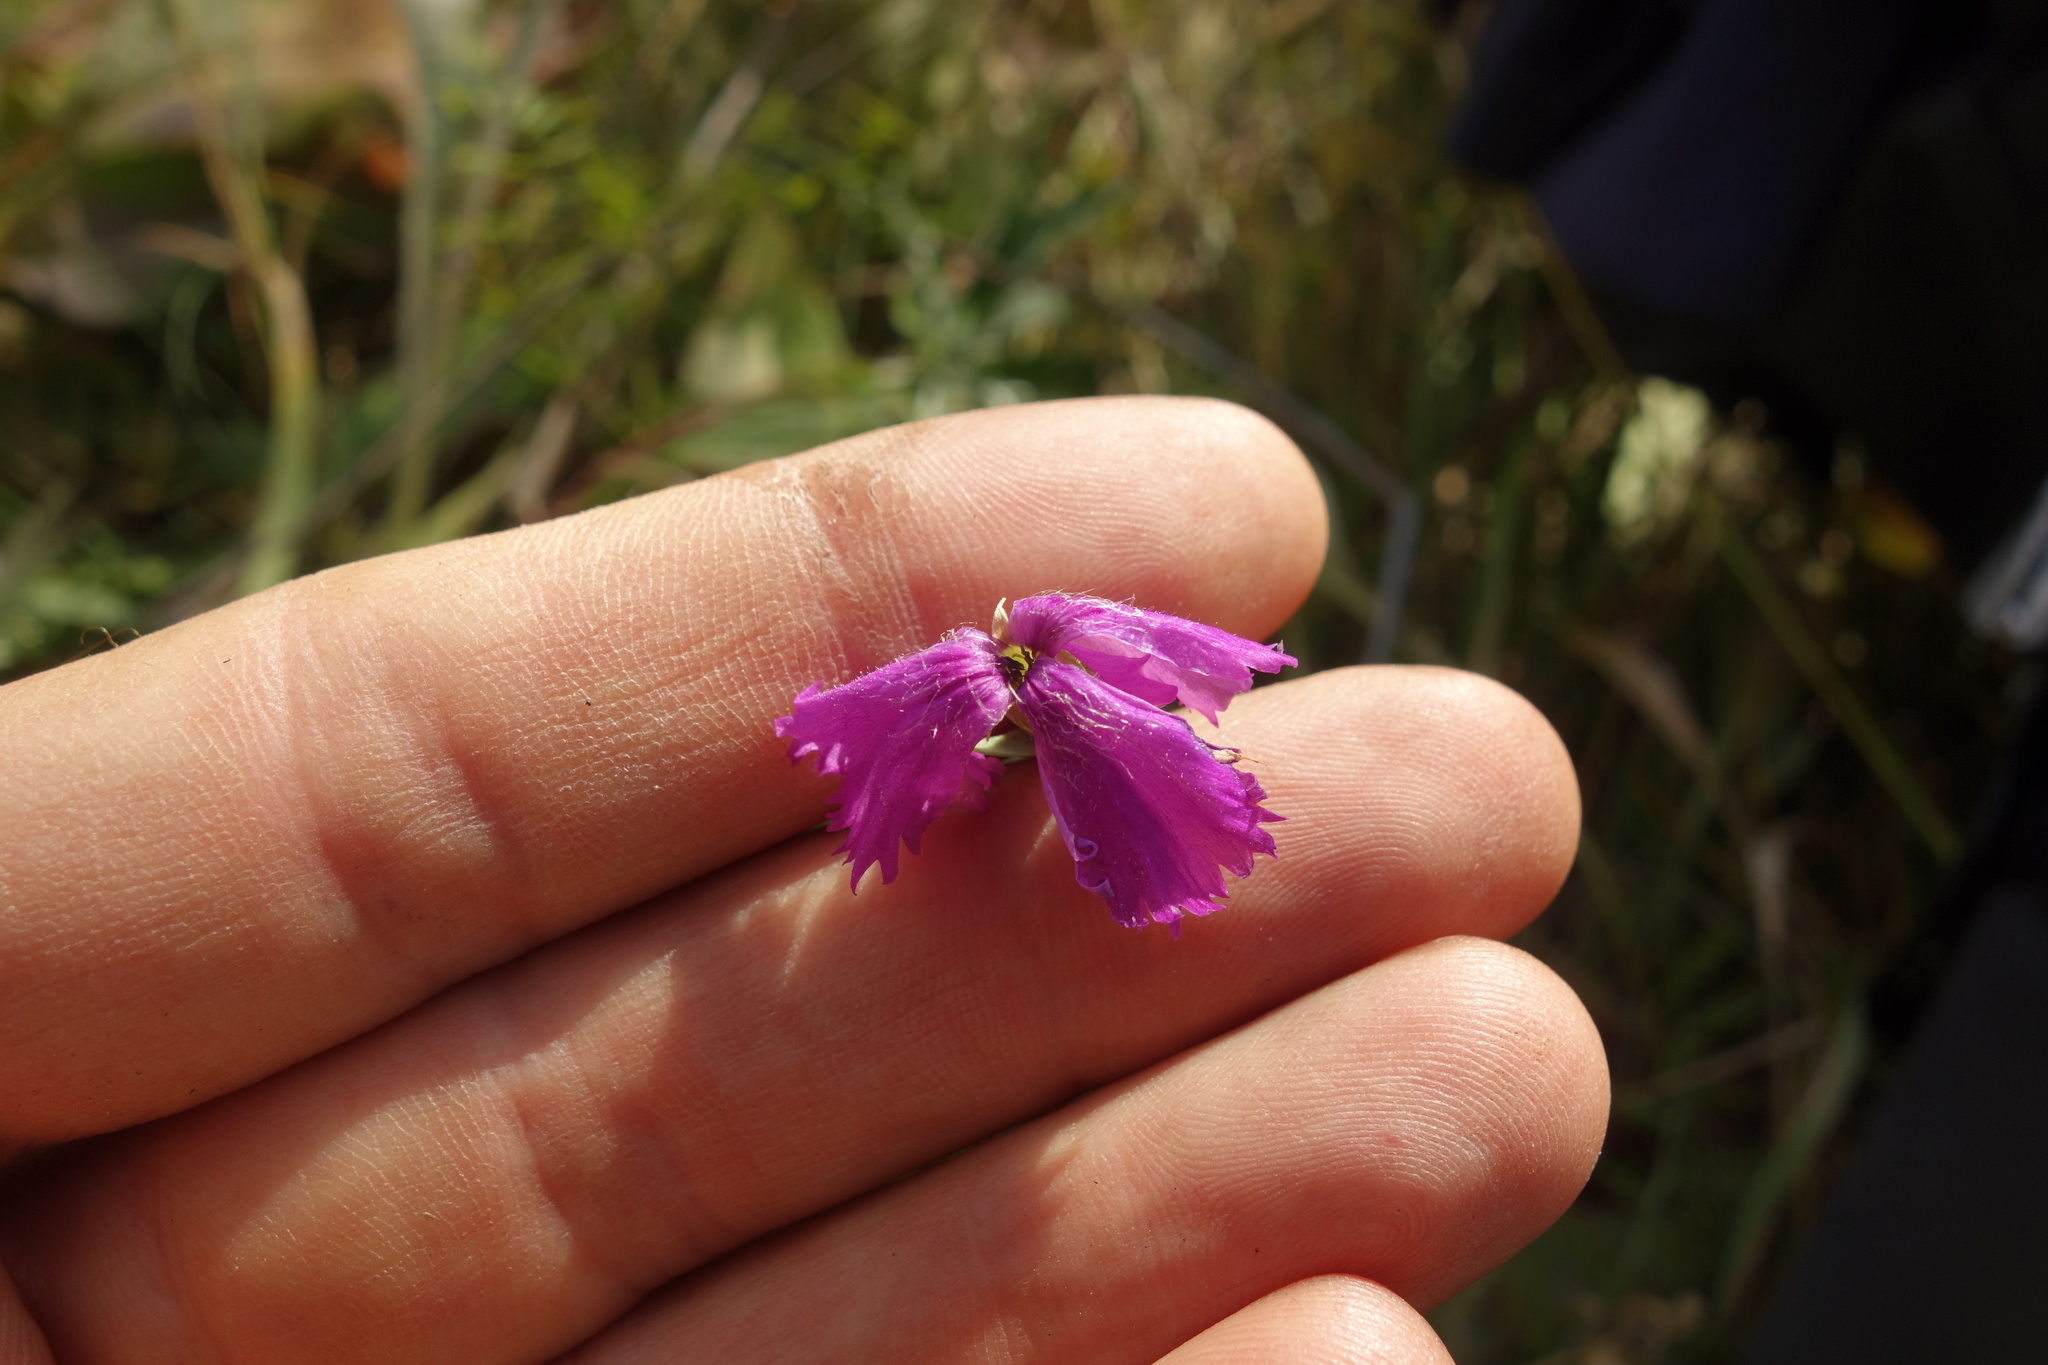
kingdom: Plantae
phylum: Tracheophyta
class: Magnoliopsida
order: Caryophyllales
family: Caryophyllaceae
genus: Dianthus
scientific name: Dianthus chinensis
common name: Rainbow pink
